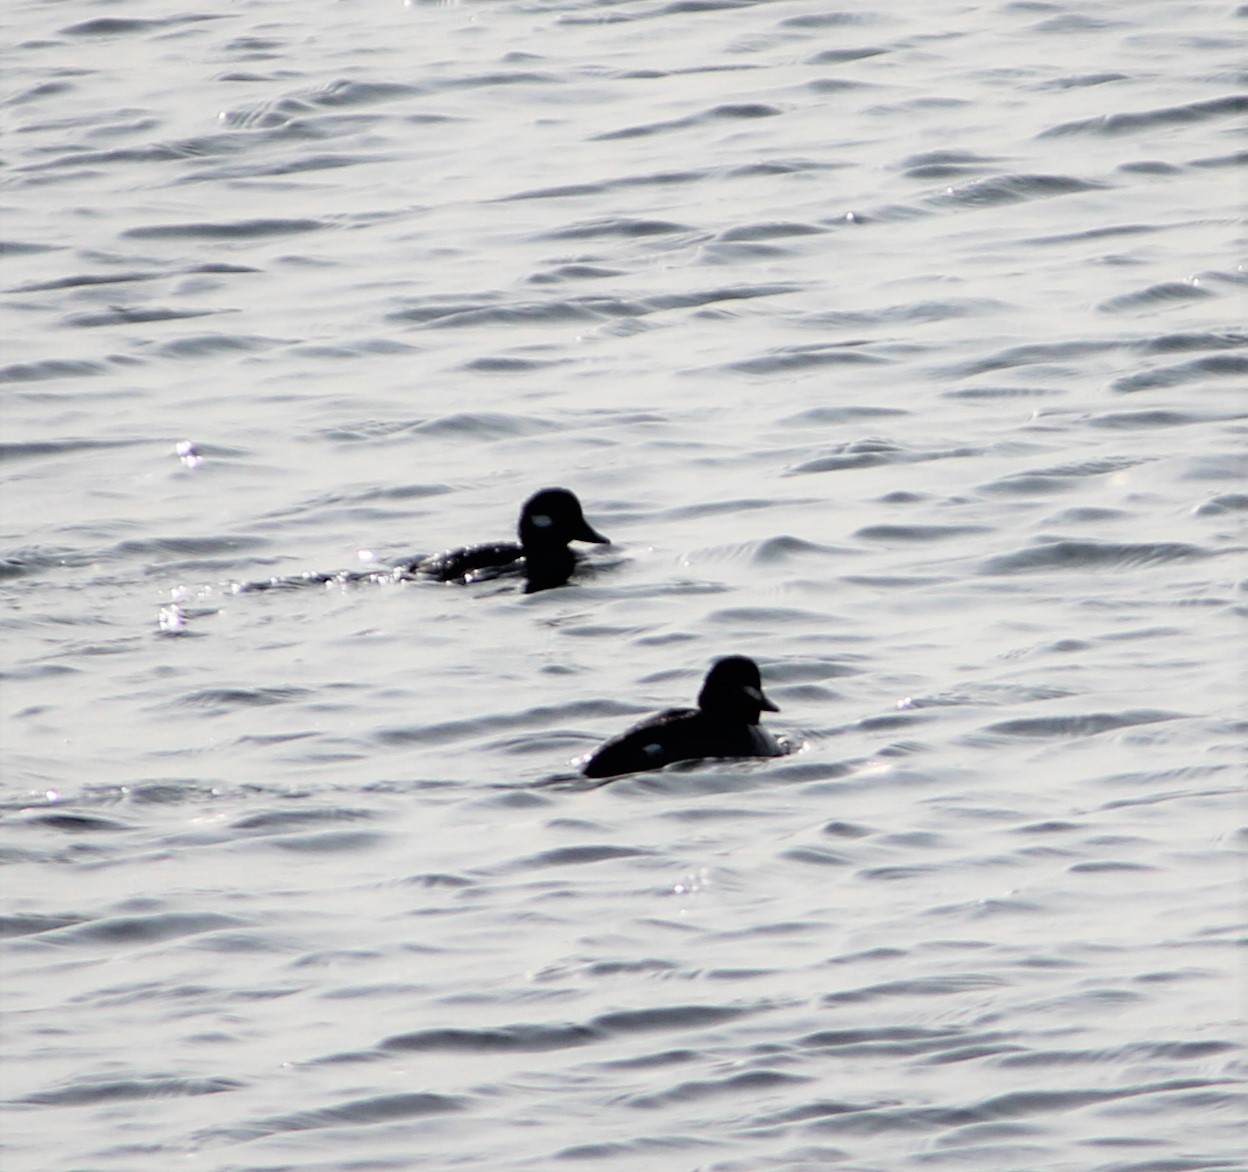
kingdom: Animalia
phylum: Chordata
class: Aves
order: Anseriformes
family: Anatidae
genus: Bucephala
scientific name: Bucephala albeola
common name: Bufflehead
